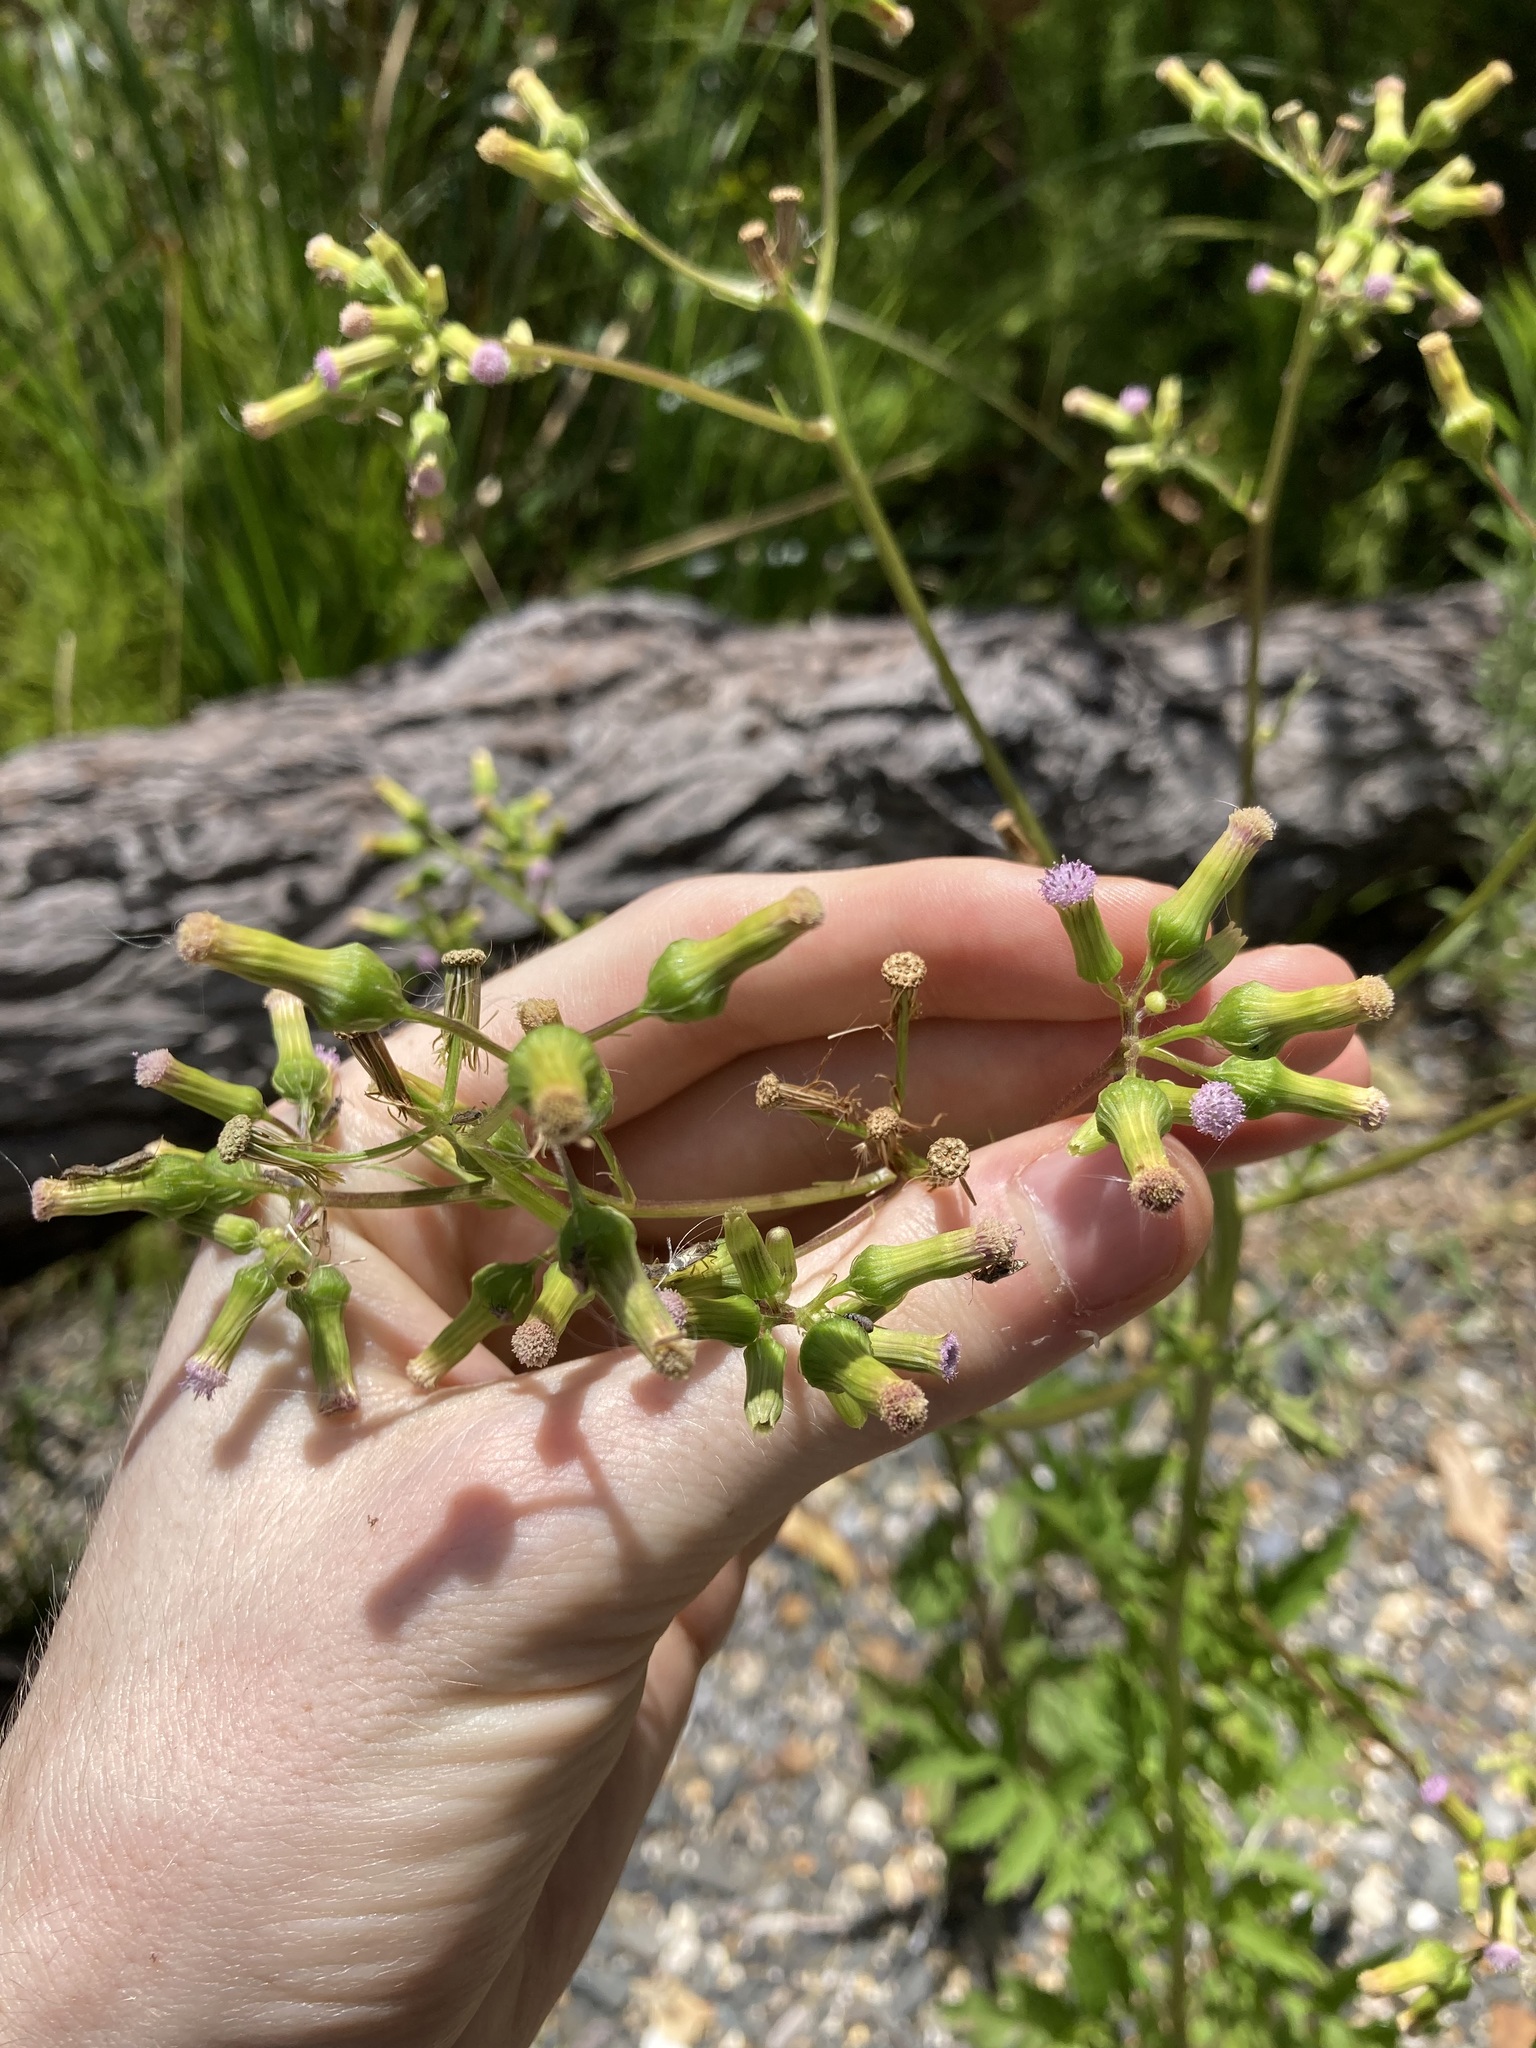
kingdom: Plantae
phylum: Tracheophyta
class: Magnoliopsida
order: Asterales
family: Asteraceae
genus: Erechtites
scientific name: Erechtites valerianifolius
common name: Tropical burnweed
